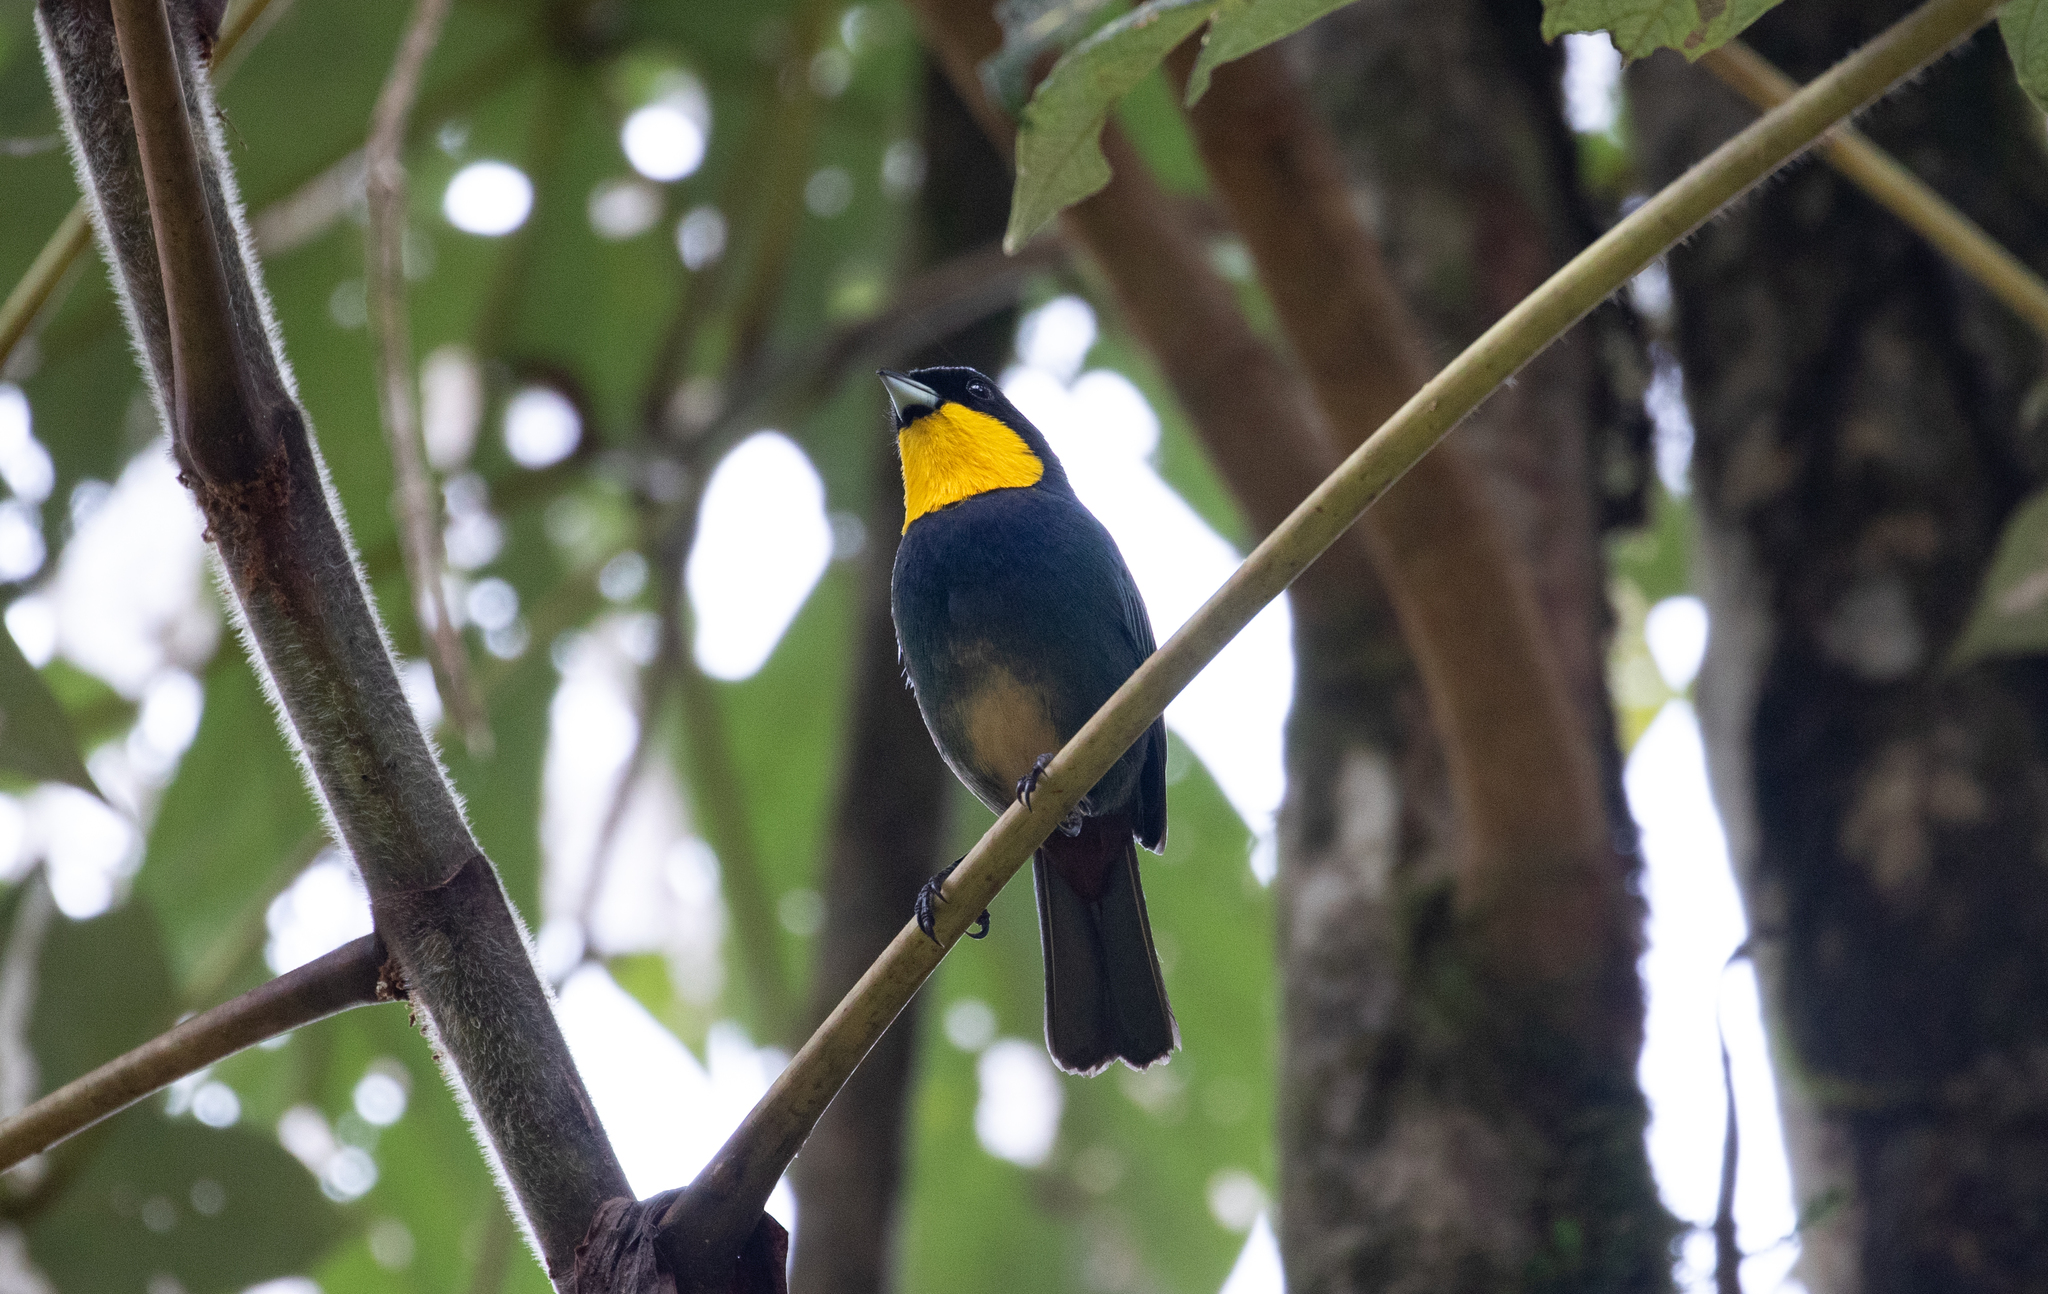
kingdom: Animalia
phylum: Chordata
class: Aves
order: Passeriformes
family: Thraupidae
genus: Iridosornis
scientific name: Iridosornis porphyrocephalus
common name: Purplish-mantled tanager
